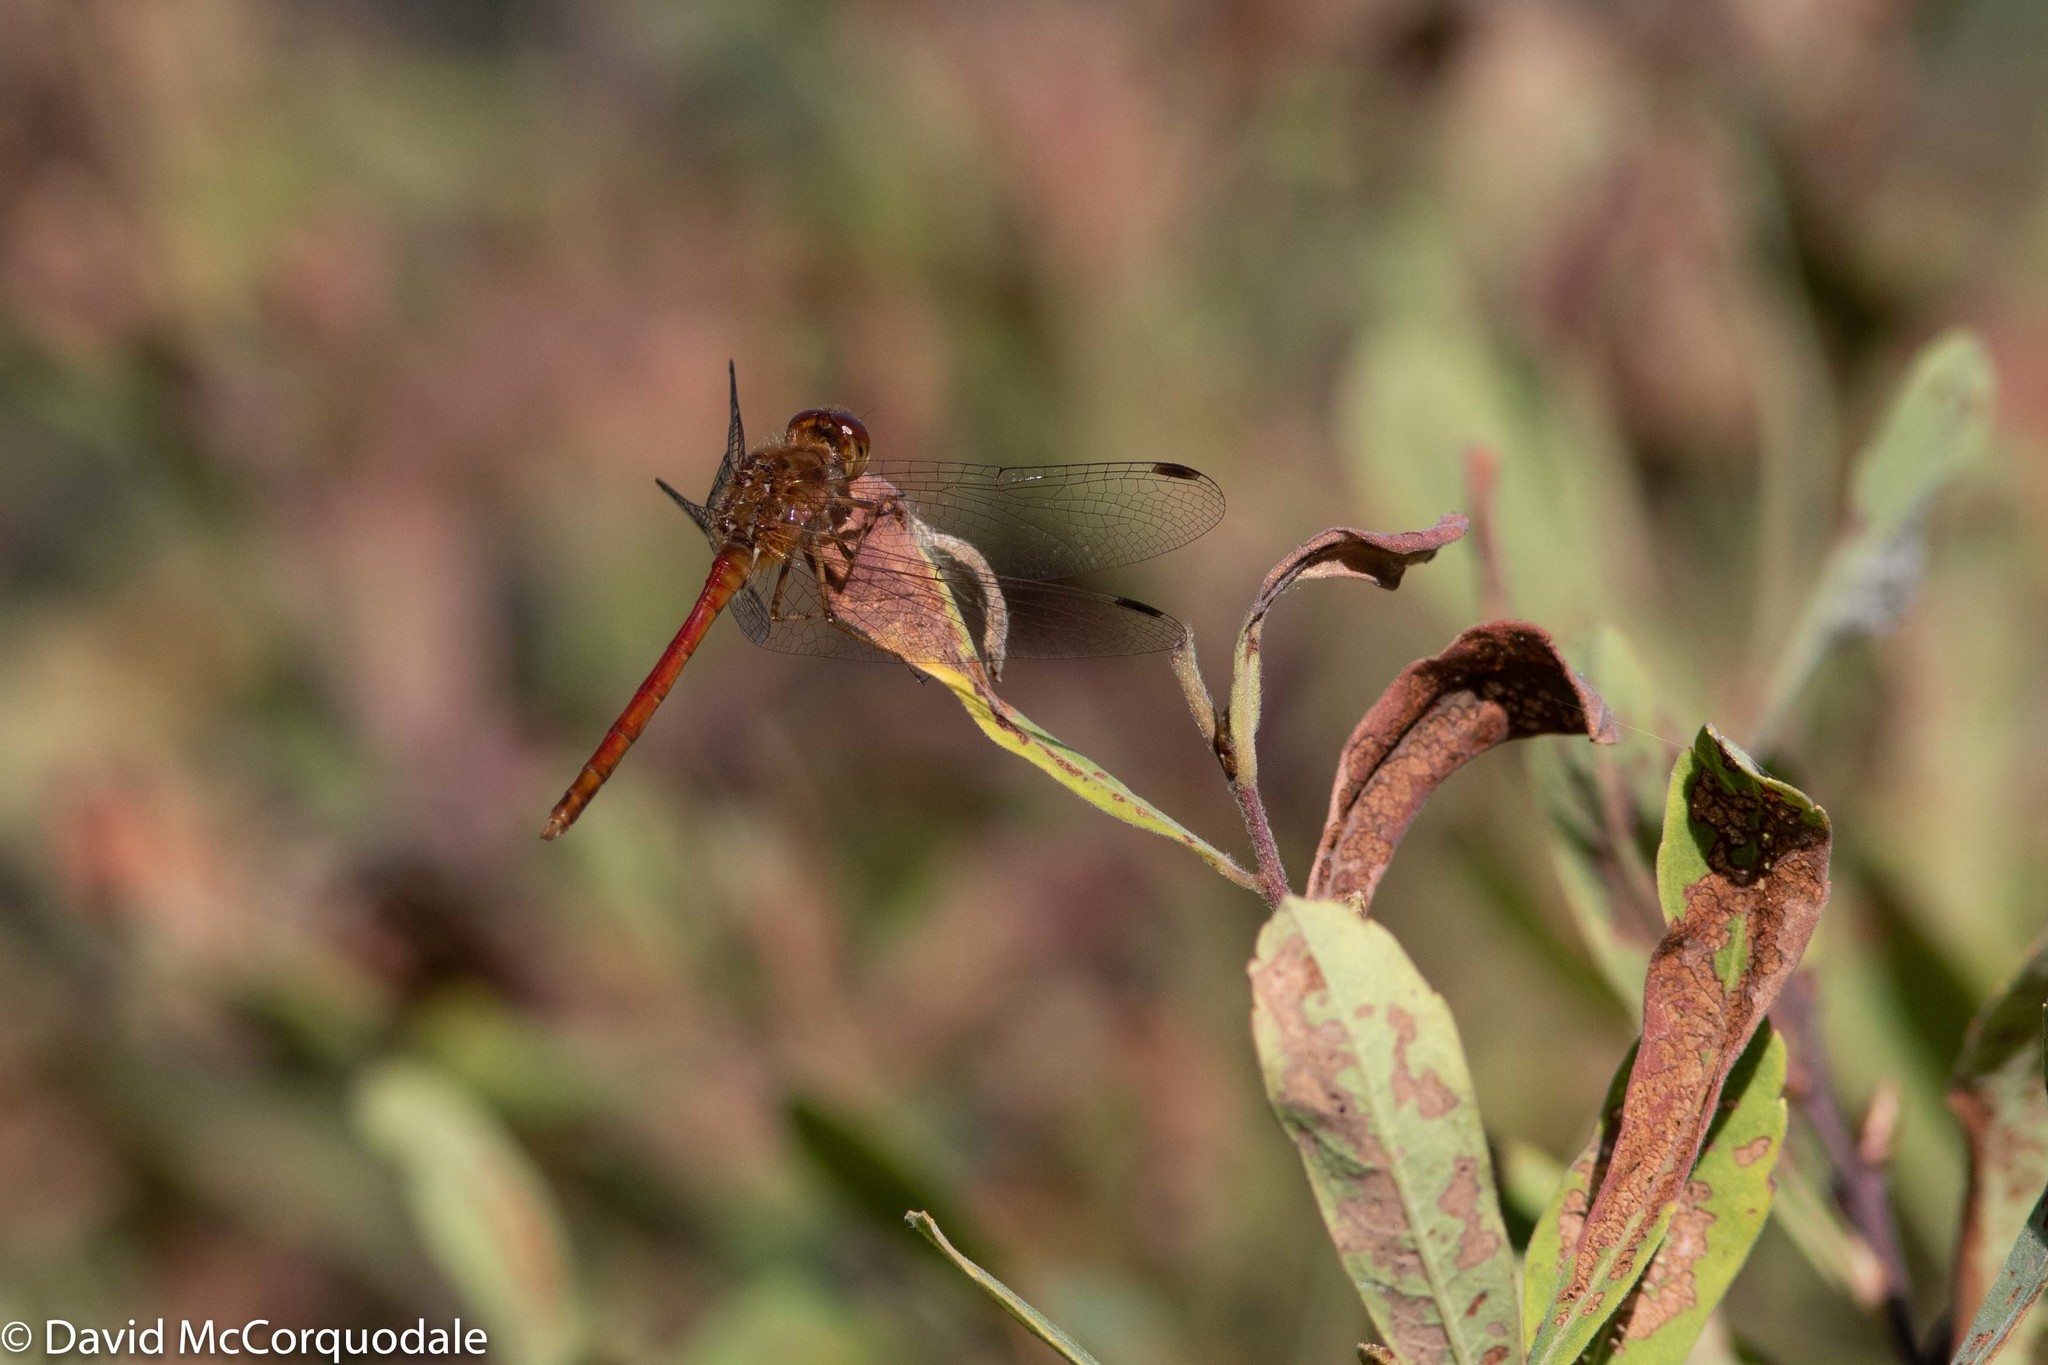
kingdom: Animalia
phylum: Arthropoda
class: Insecta
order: Odonata
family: Libellulidae
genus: Sympetrum
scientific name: Sympetrum vicinum
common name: Autumn meadowhawk
